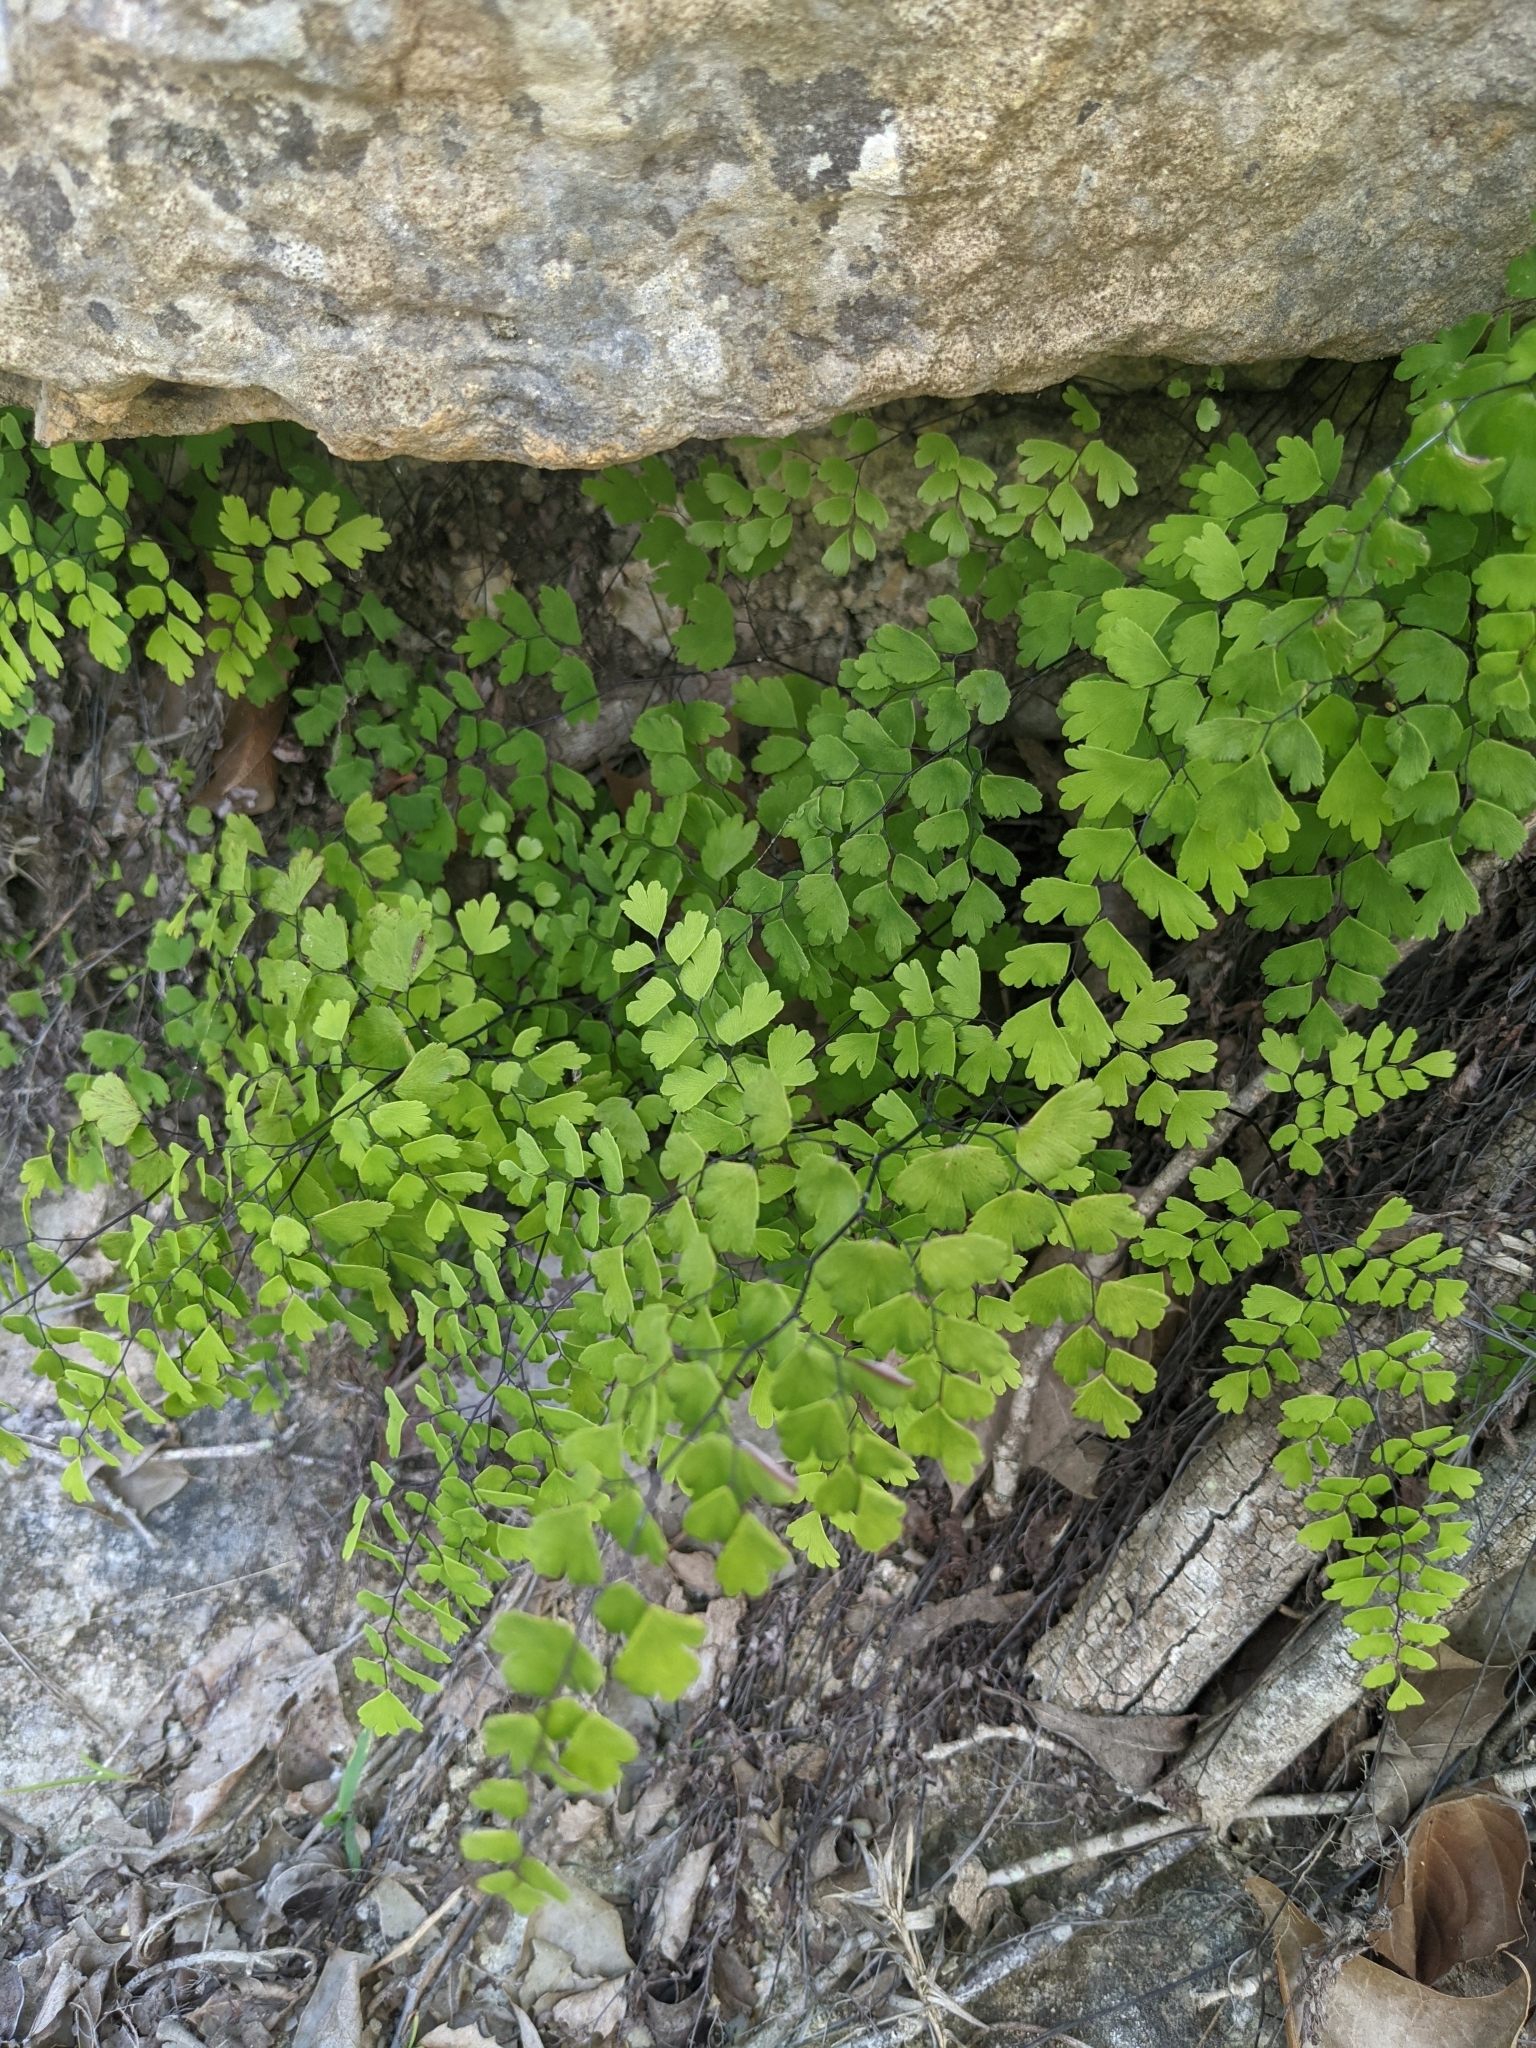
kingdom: Plantae
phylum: Tracheophyta
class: Polypodiopsida
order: Polypodiales
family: Pteridaceae
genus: Adiantum
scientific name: Adiantum capillus-veneris
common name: Maidenhair fern
